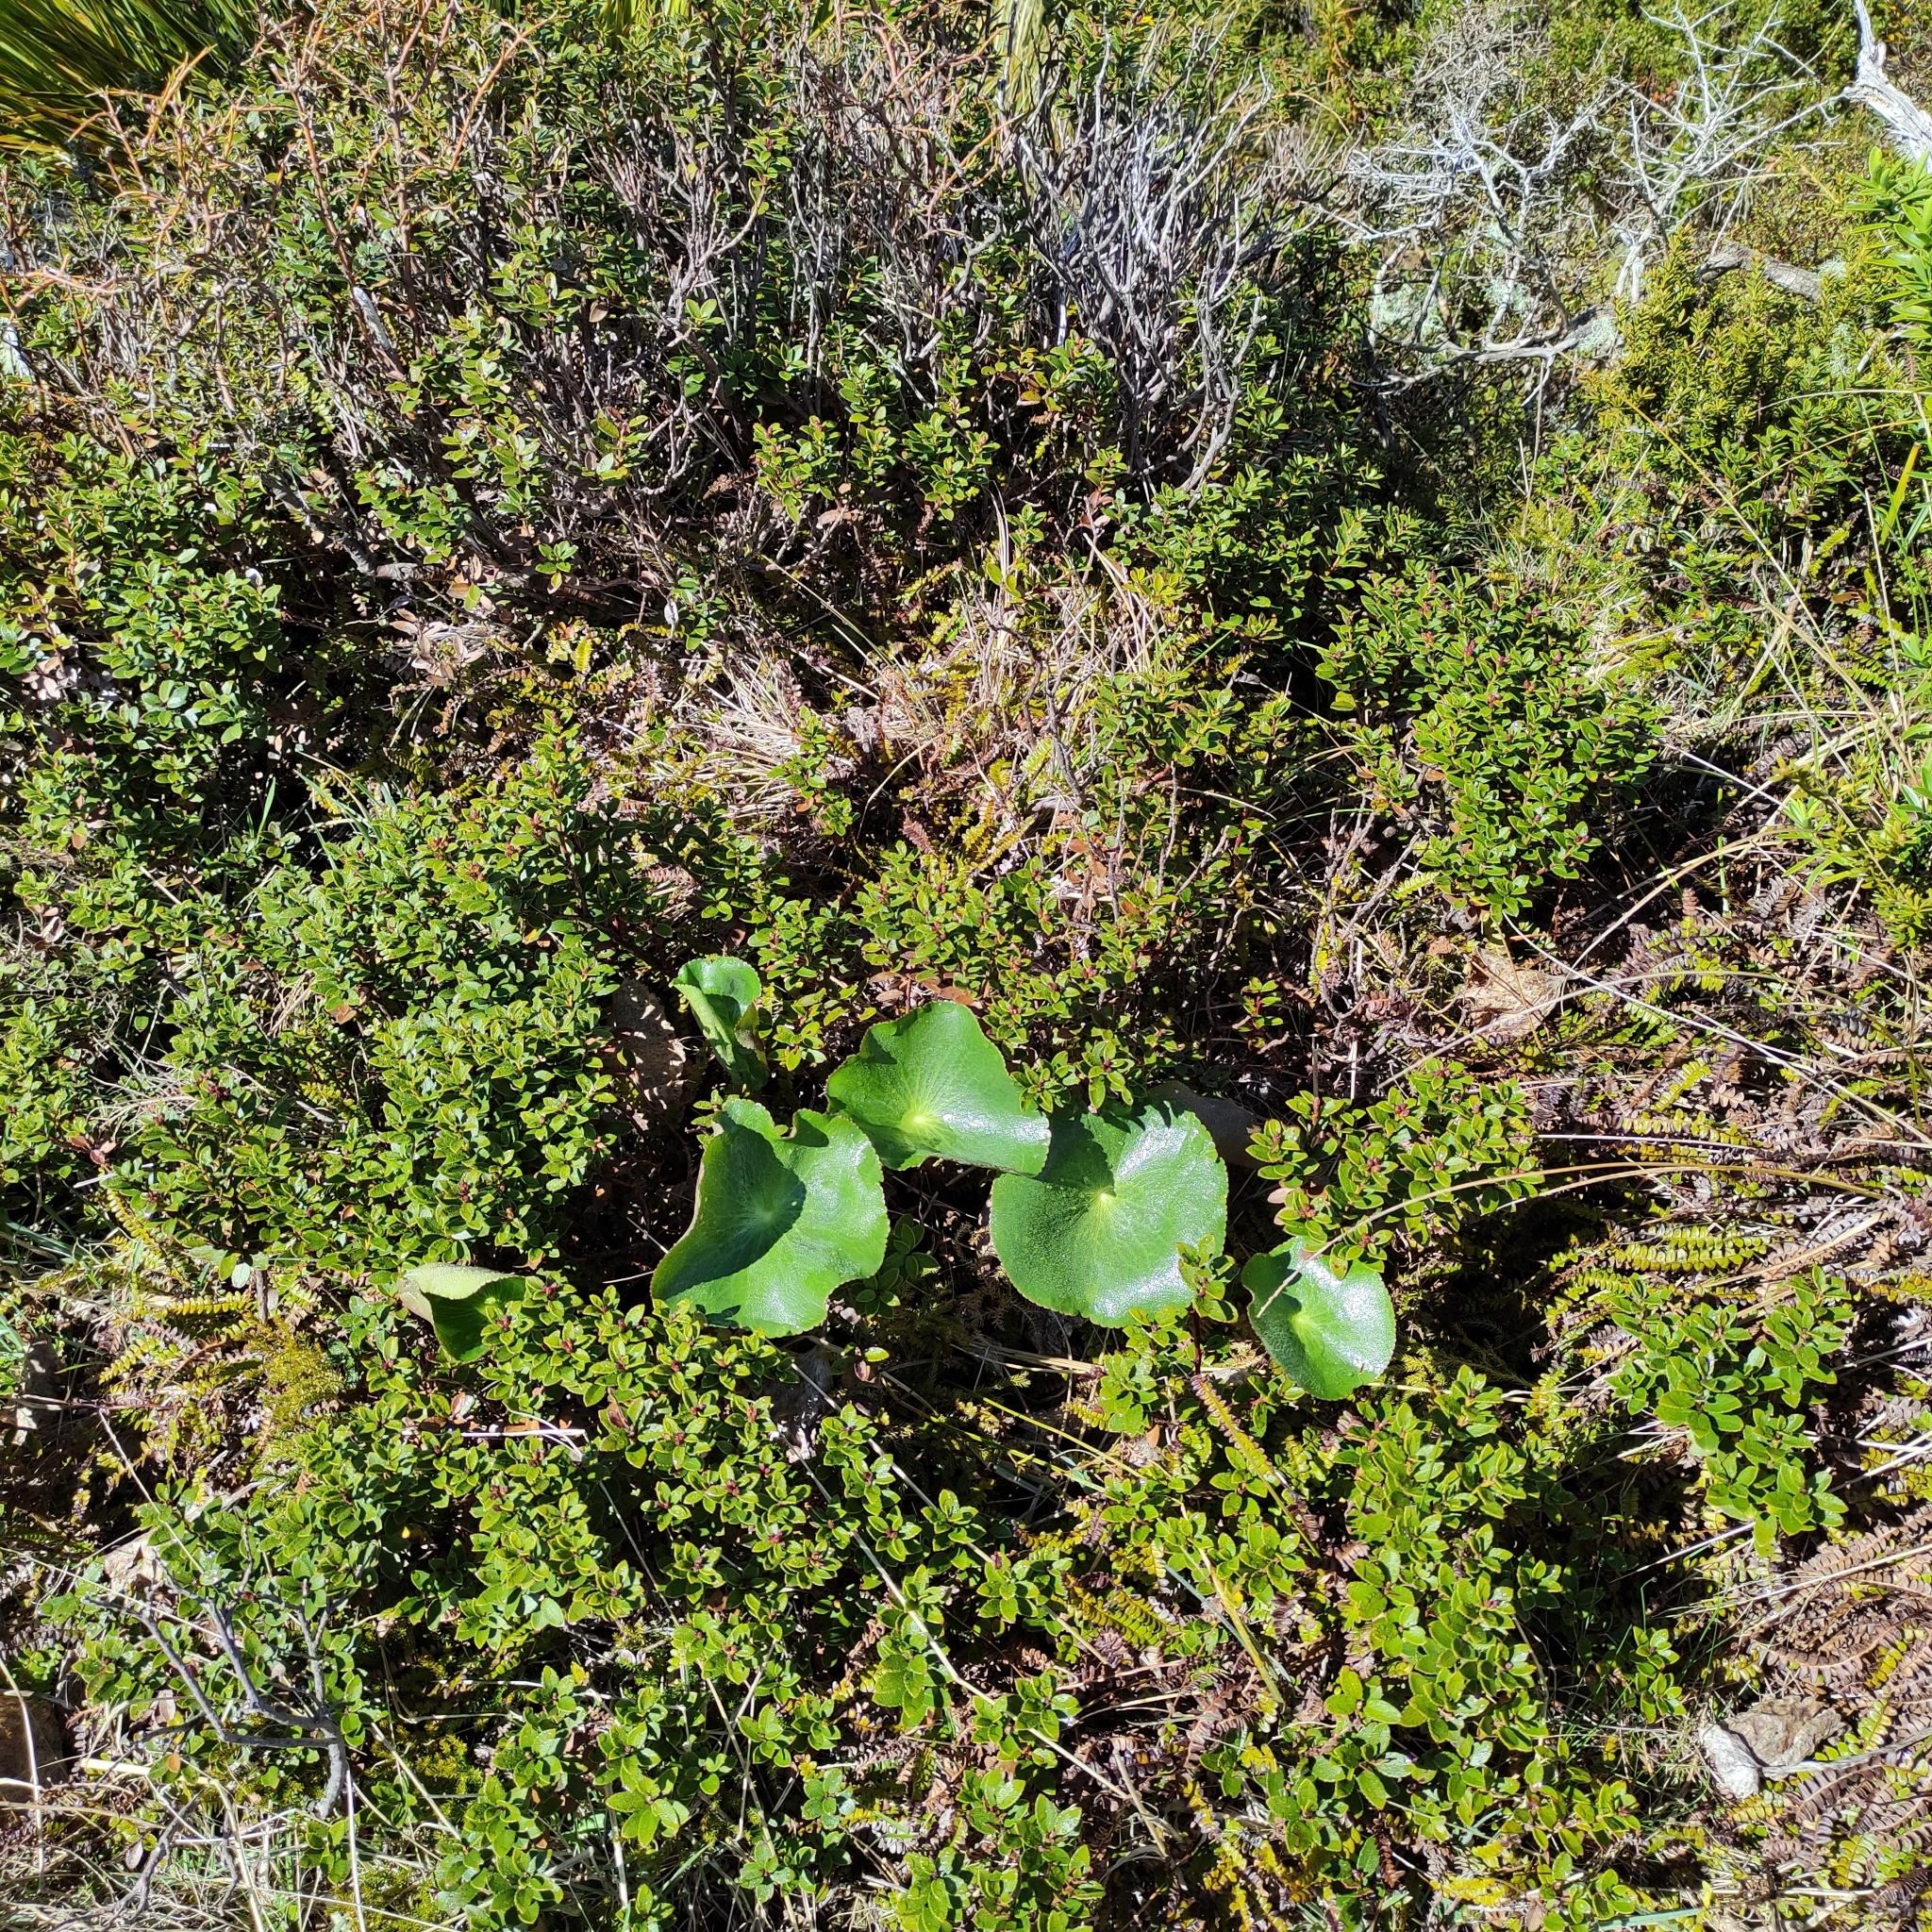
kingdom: Plantae
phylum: Tracheophyta
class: Magnoliopsida
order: Ranunculales
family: Ranunculaceae
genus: Ranunculus
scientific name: Ranunculus lyallii
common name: Mountain-lily
